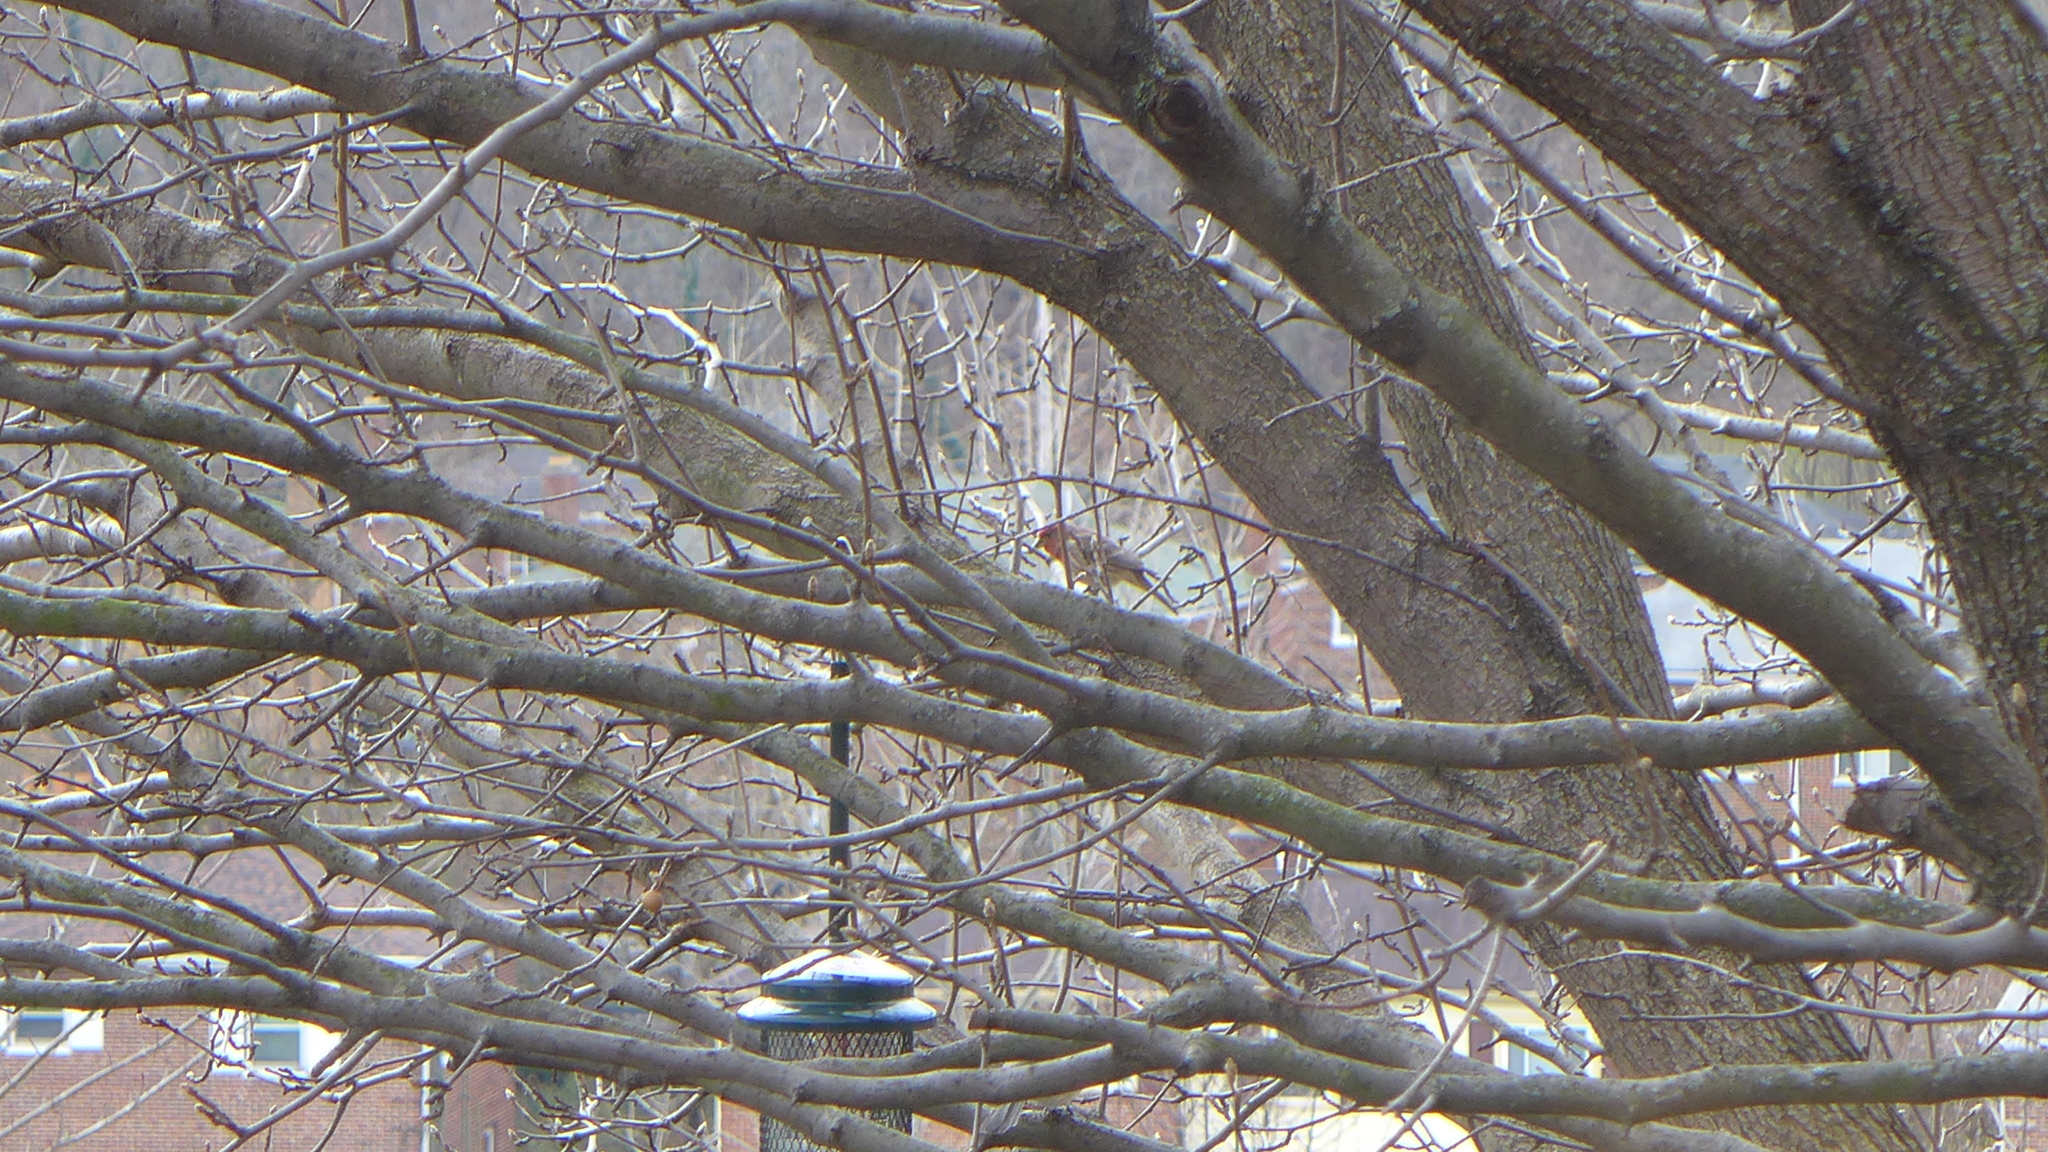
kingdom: Animalia
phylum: Chordata
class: Aves
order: Passeriformes
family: Fringillidae
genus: Haemorhous
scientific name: Haemorhous mexicanus
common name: House finch
